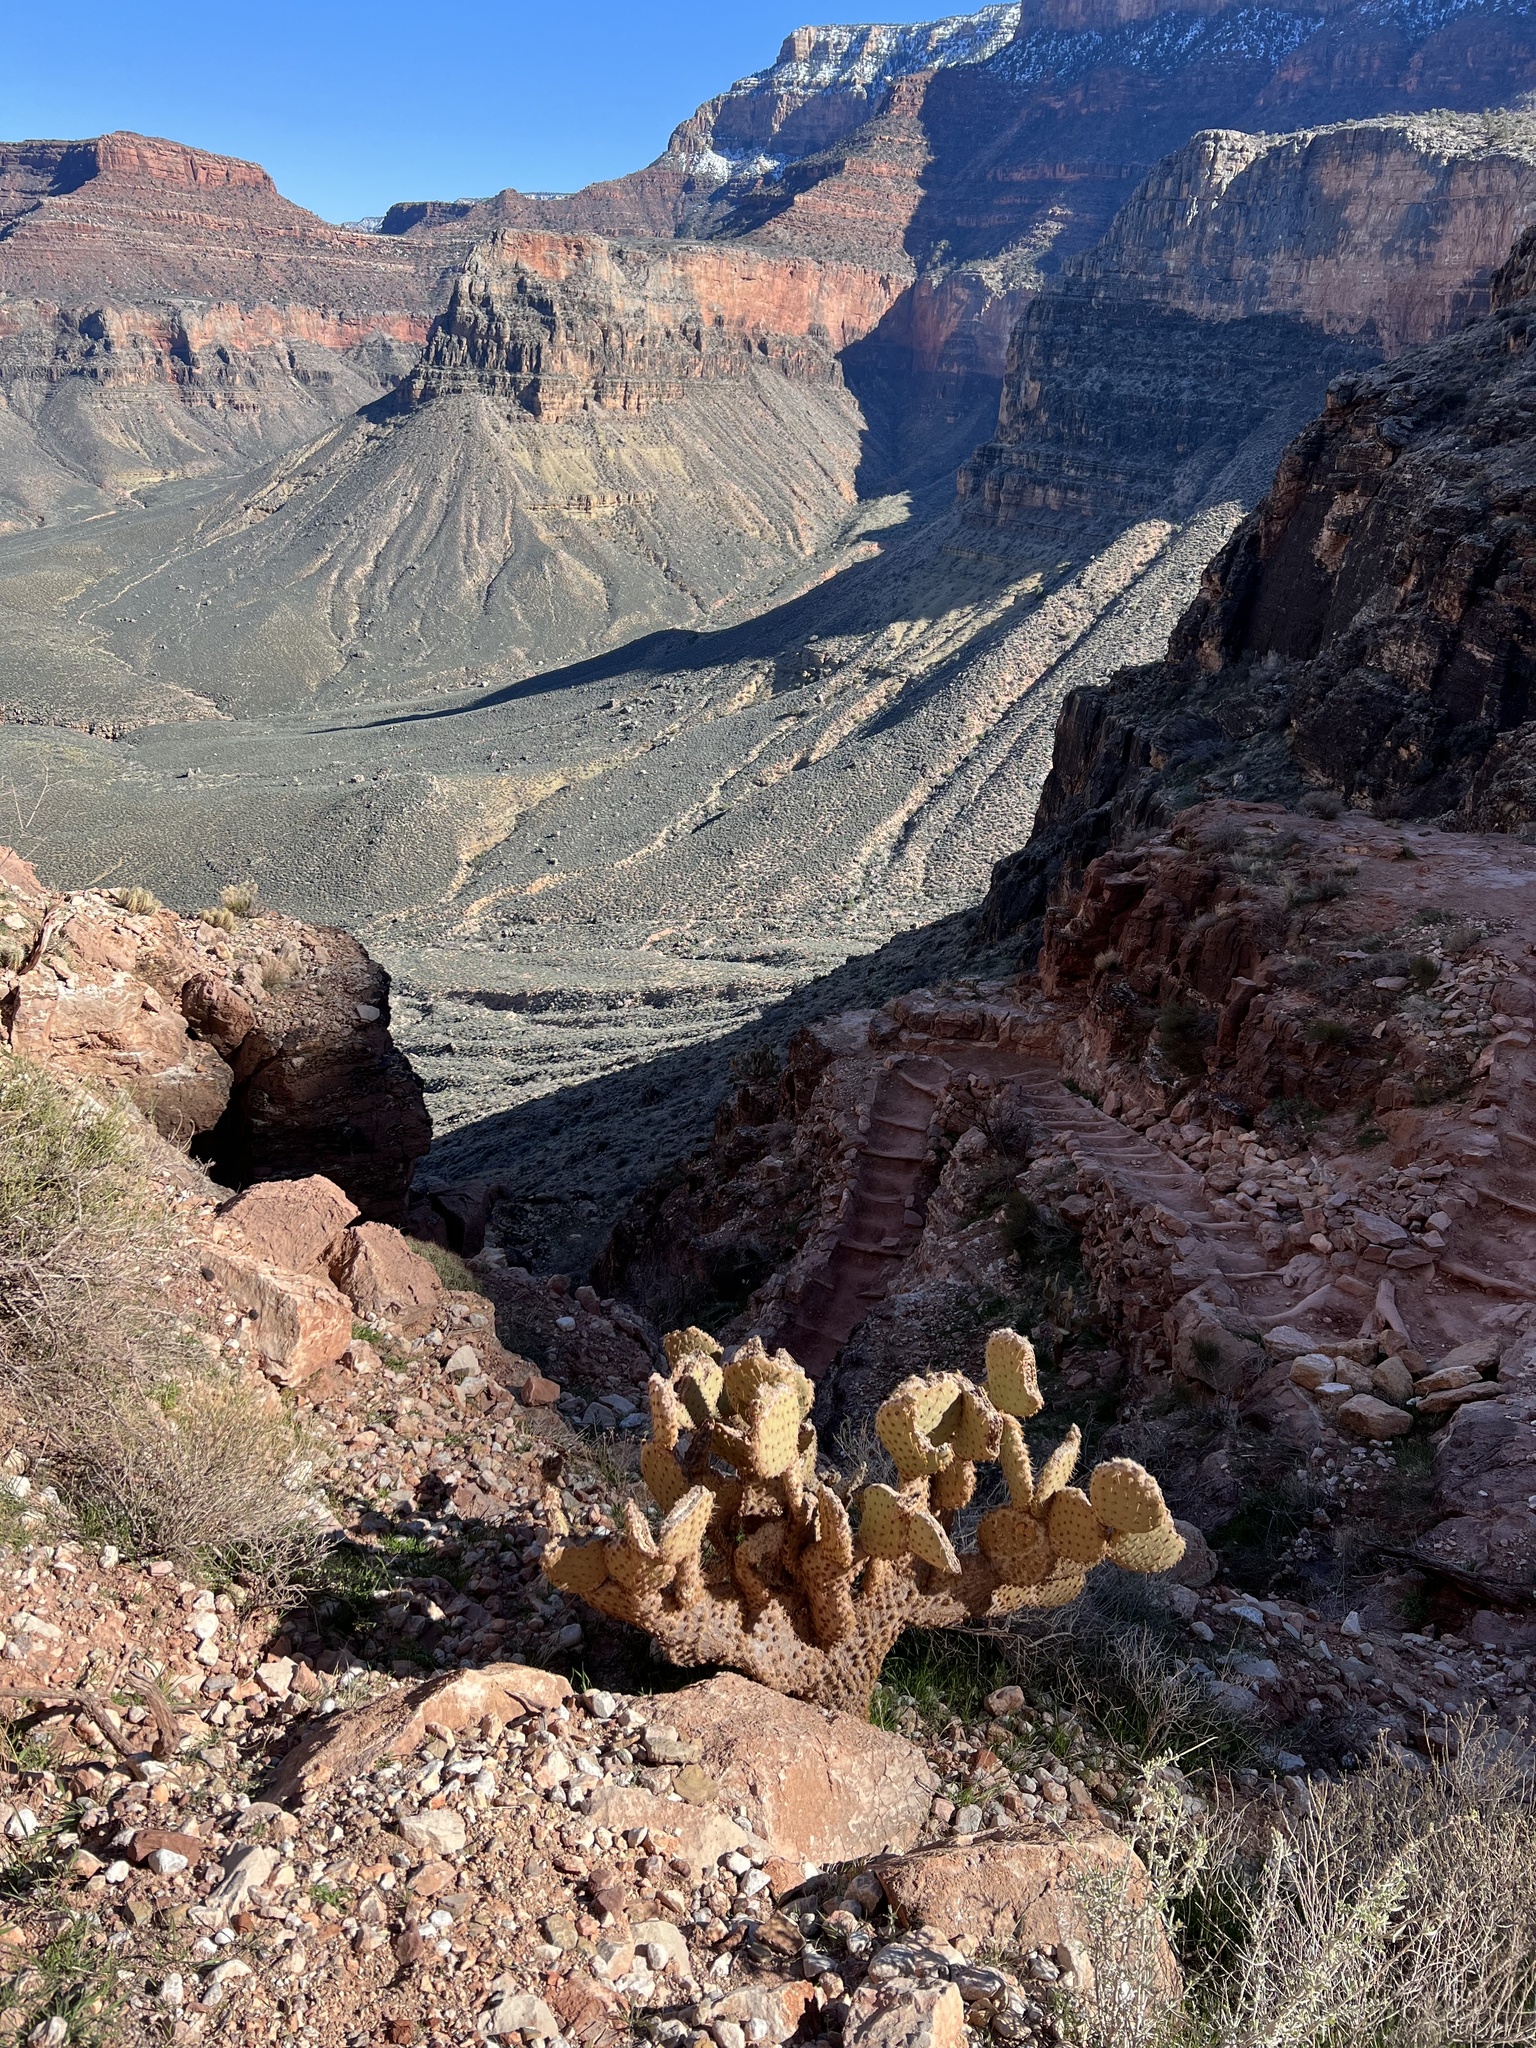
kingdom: Plantae
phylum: Tracheophyta
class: Magnoliopsida
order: Caryophyllales
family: Cactaceae
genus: Opuntia
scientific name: Opuntia chlorotica
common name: Dollar-joint prickly-pear
